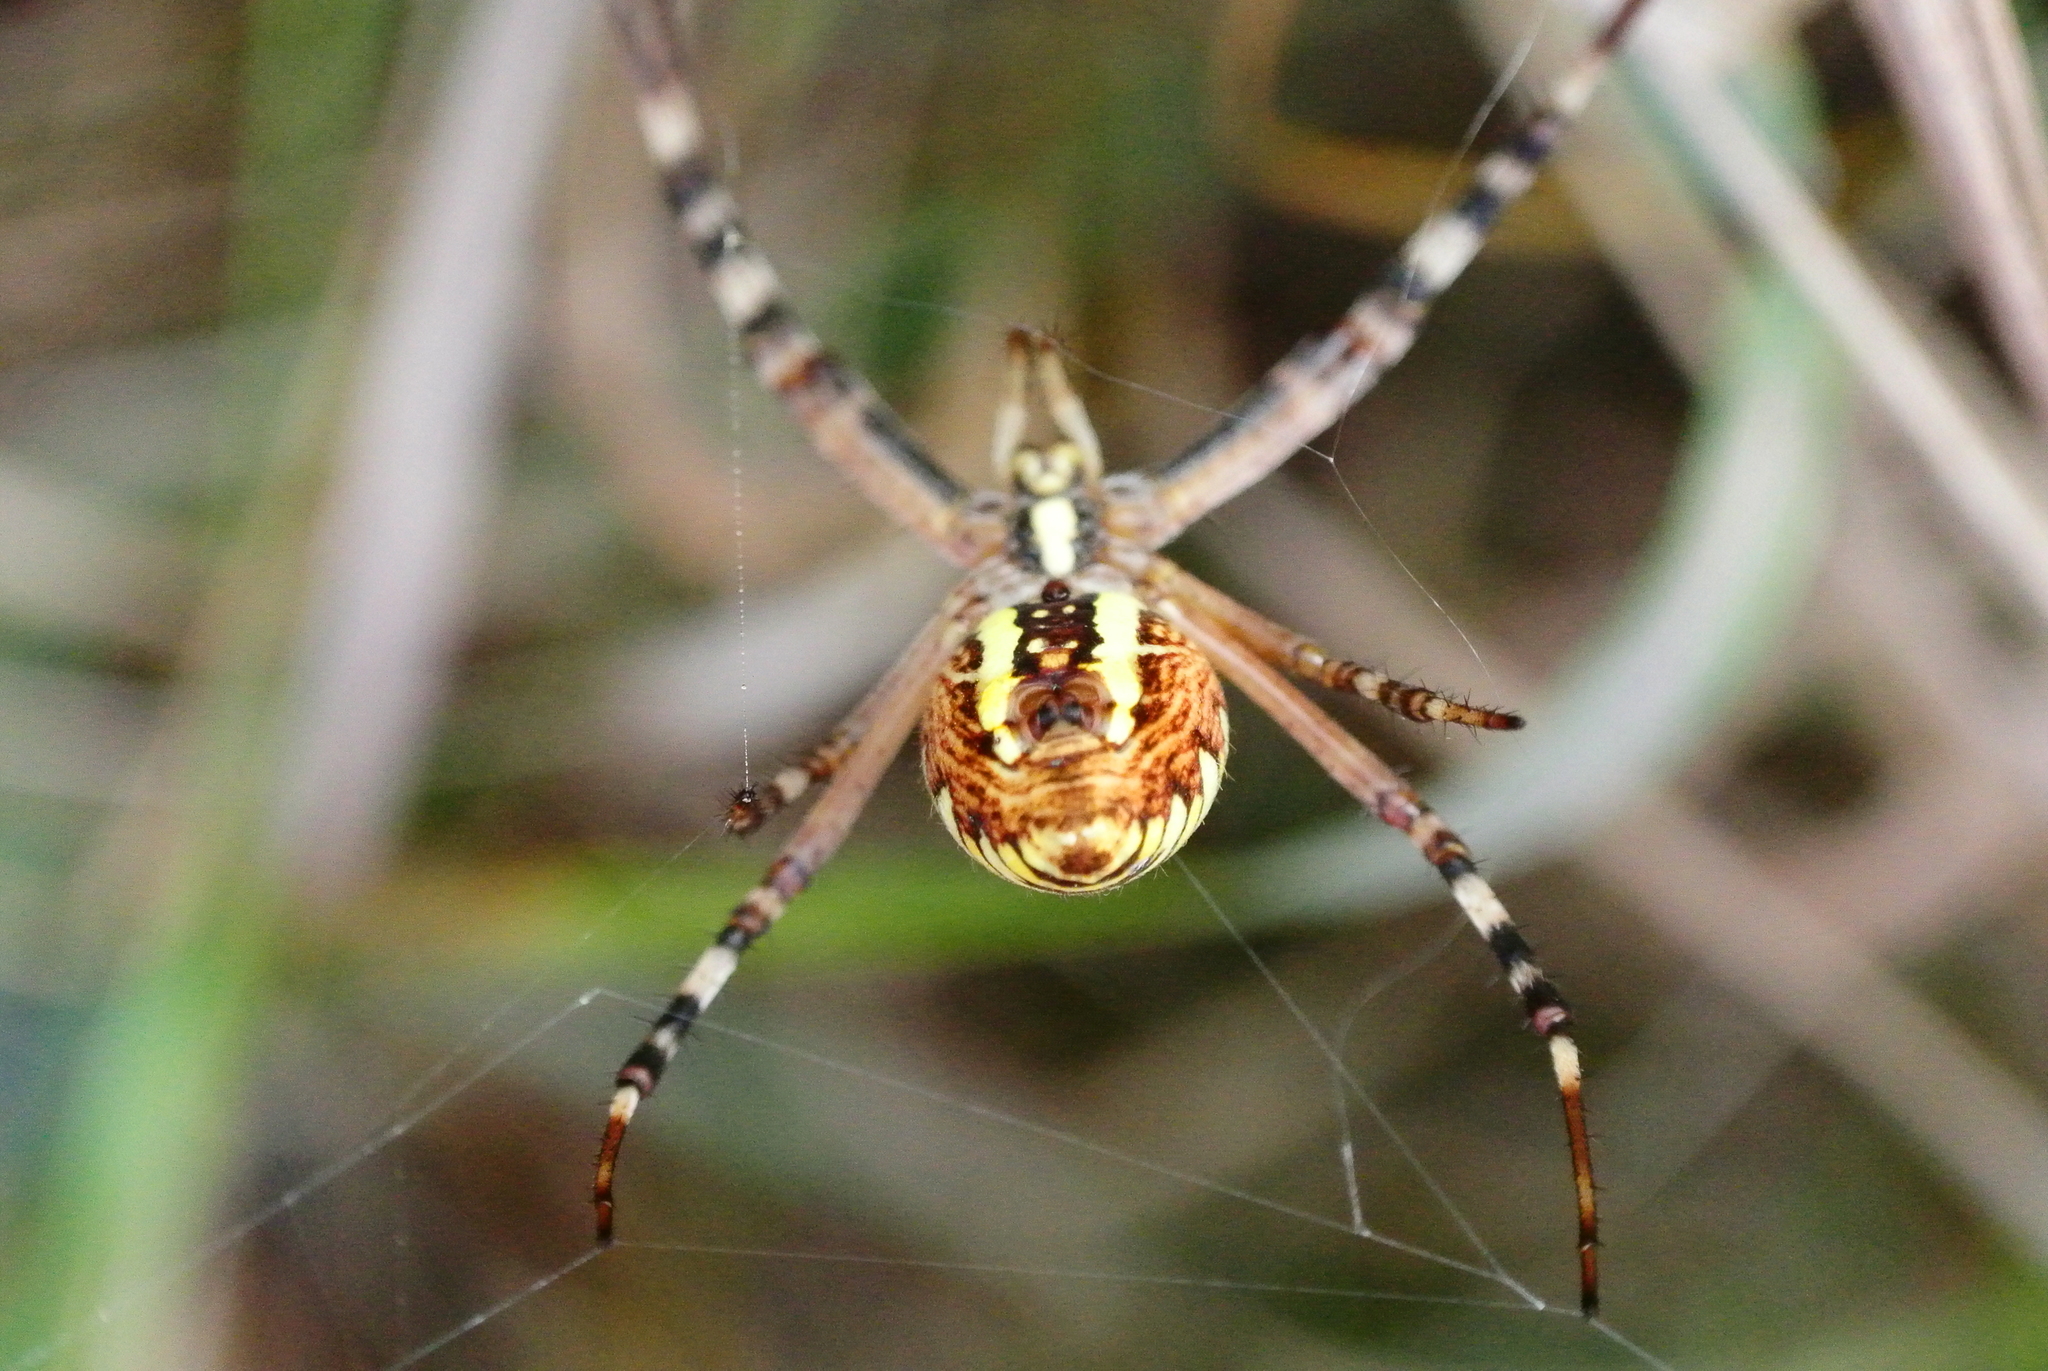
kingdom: Animalia
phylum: Arthropoda
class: Arachnida
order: Araneae
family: Araneidae
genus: Argiope
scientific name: Argiope bruennichi
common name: Wasp spider
